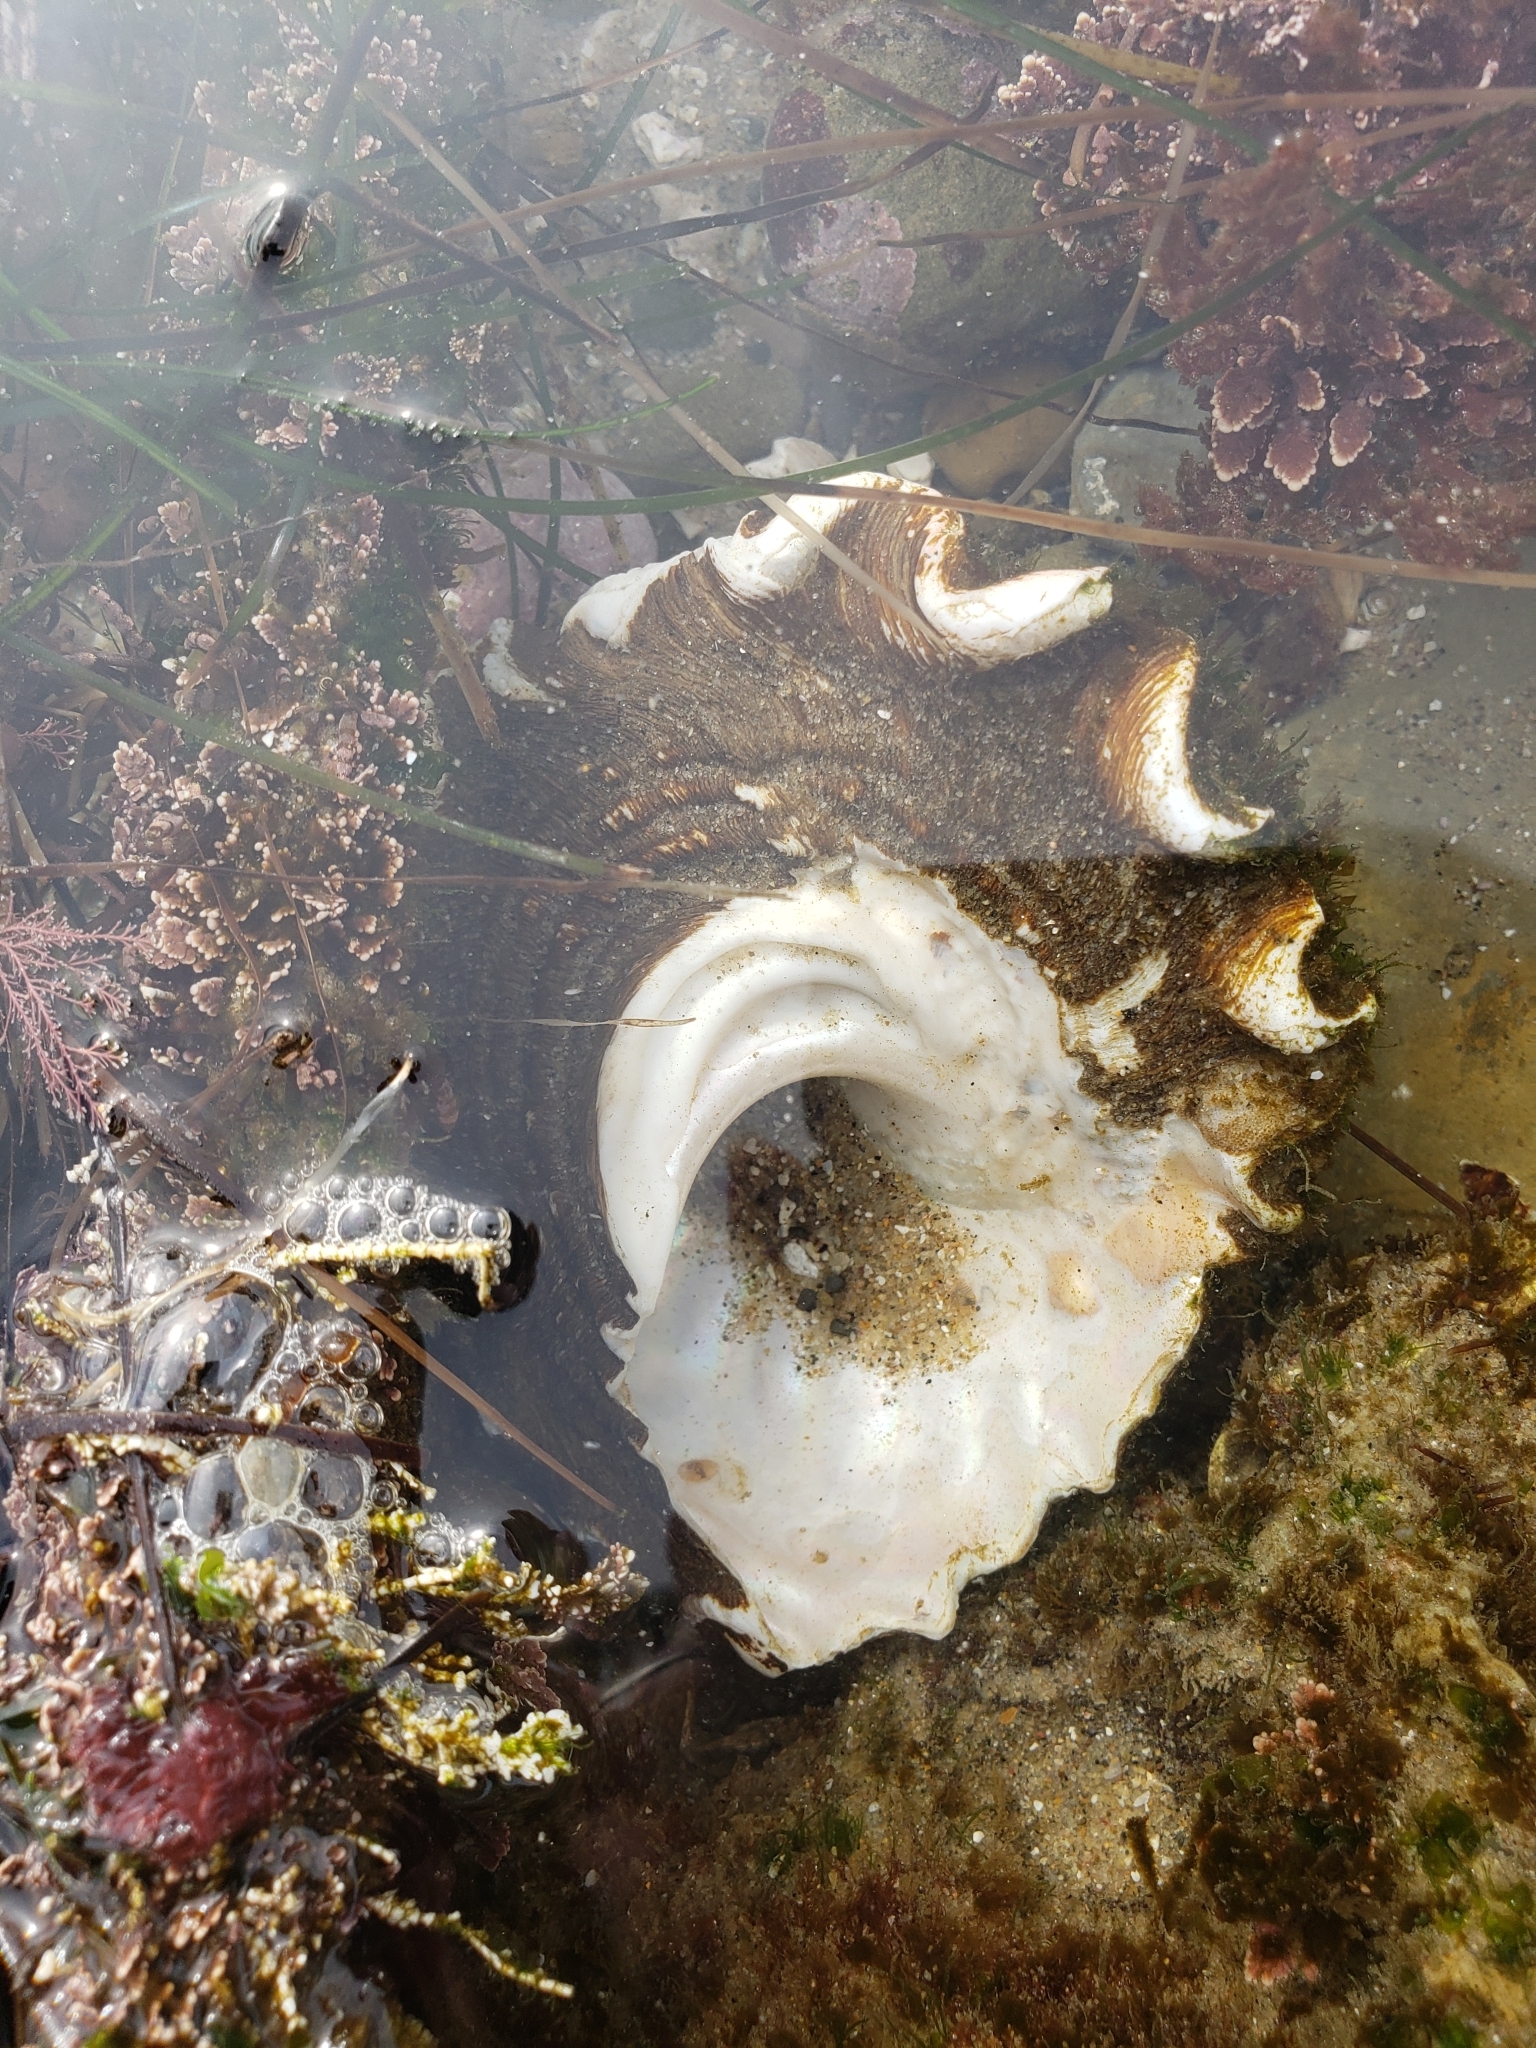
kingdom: Animalia
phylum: Mollusca
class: Gastropoda
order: Trochida
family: Turbinidae
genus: Megastraea
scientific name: Megastraea undosa
